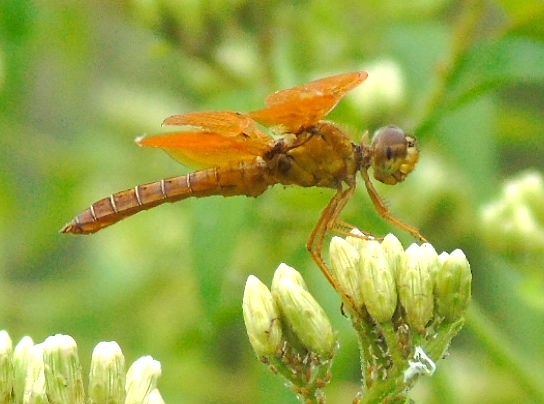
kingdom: Animalia
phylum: Arthropoda
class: Insecta
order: Odonata
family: Libellulidae
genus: Perithemis
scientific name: Perithemis
